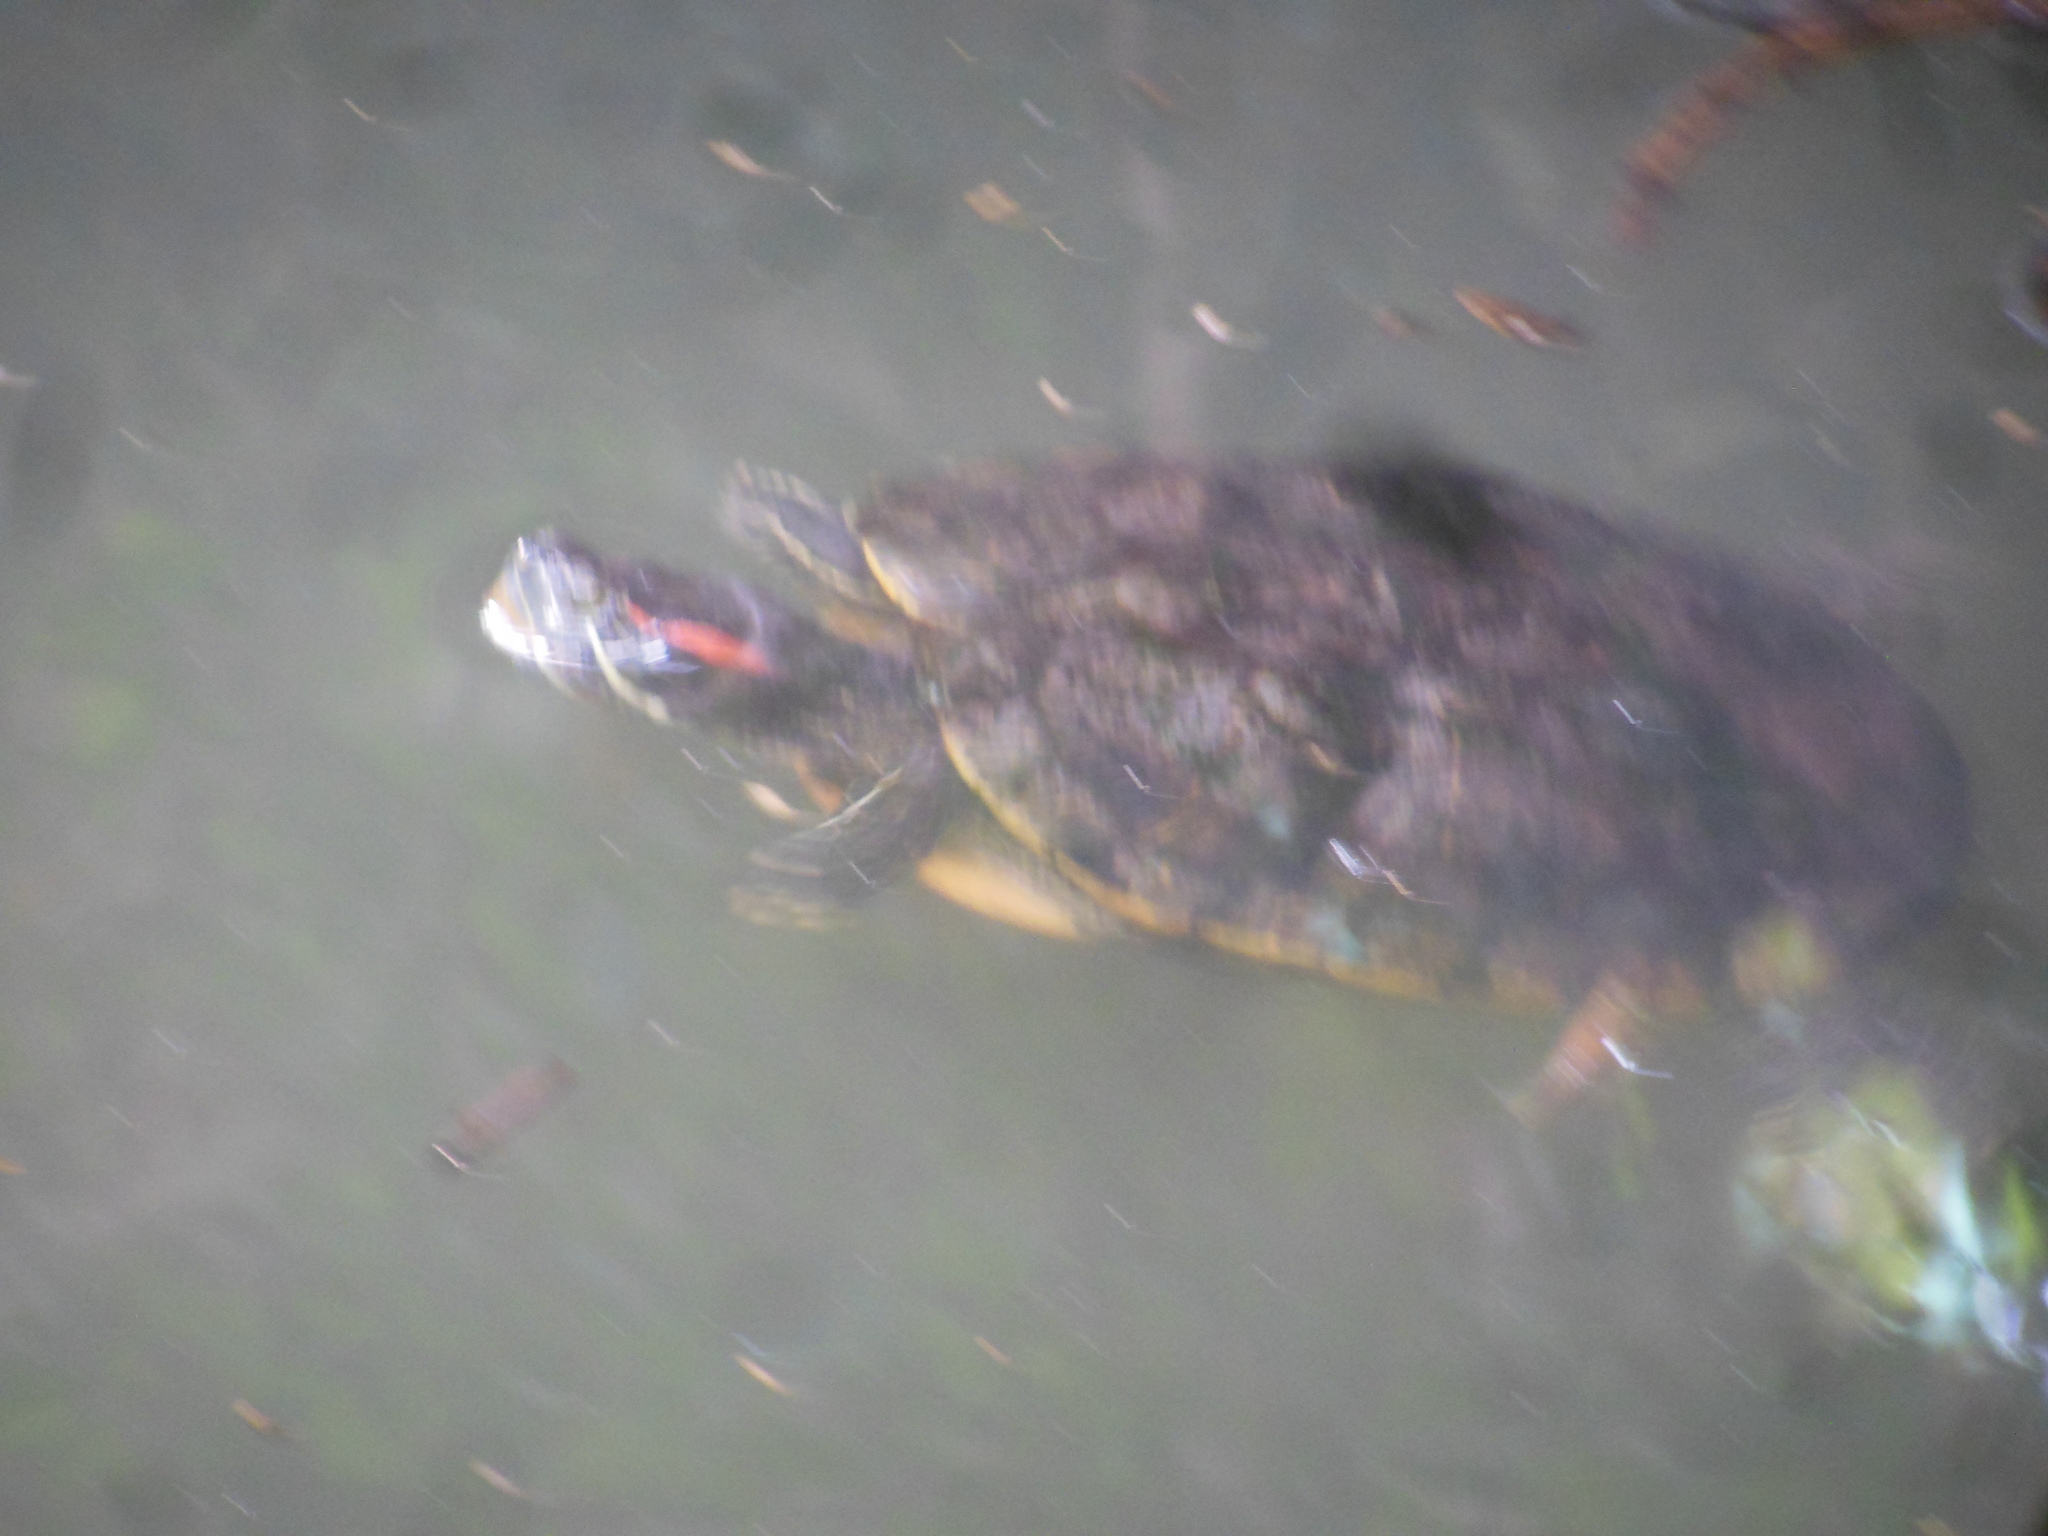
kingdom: Animalia
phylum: Chordata
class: Testudines
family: Emydidae
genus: Trachemys
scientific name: Trachemys scripta
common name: Slider
